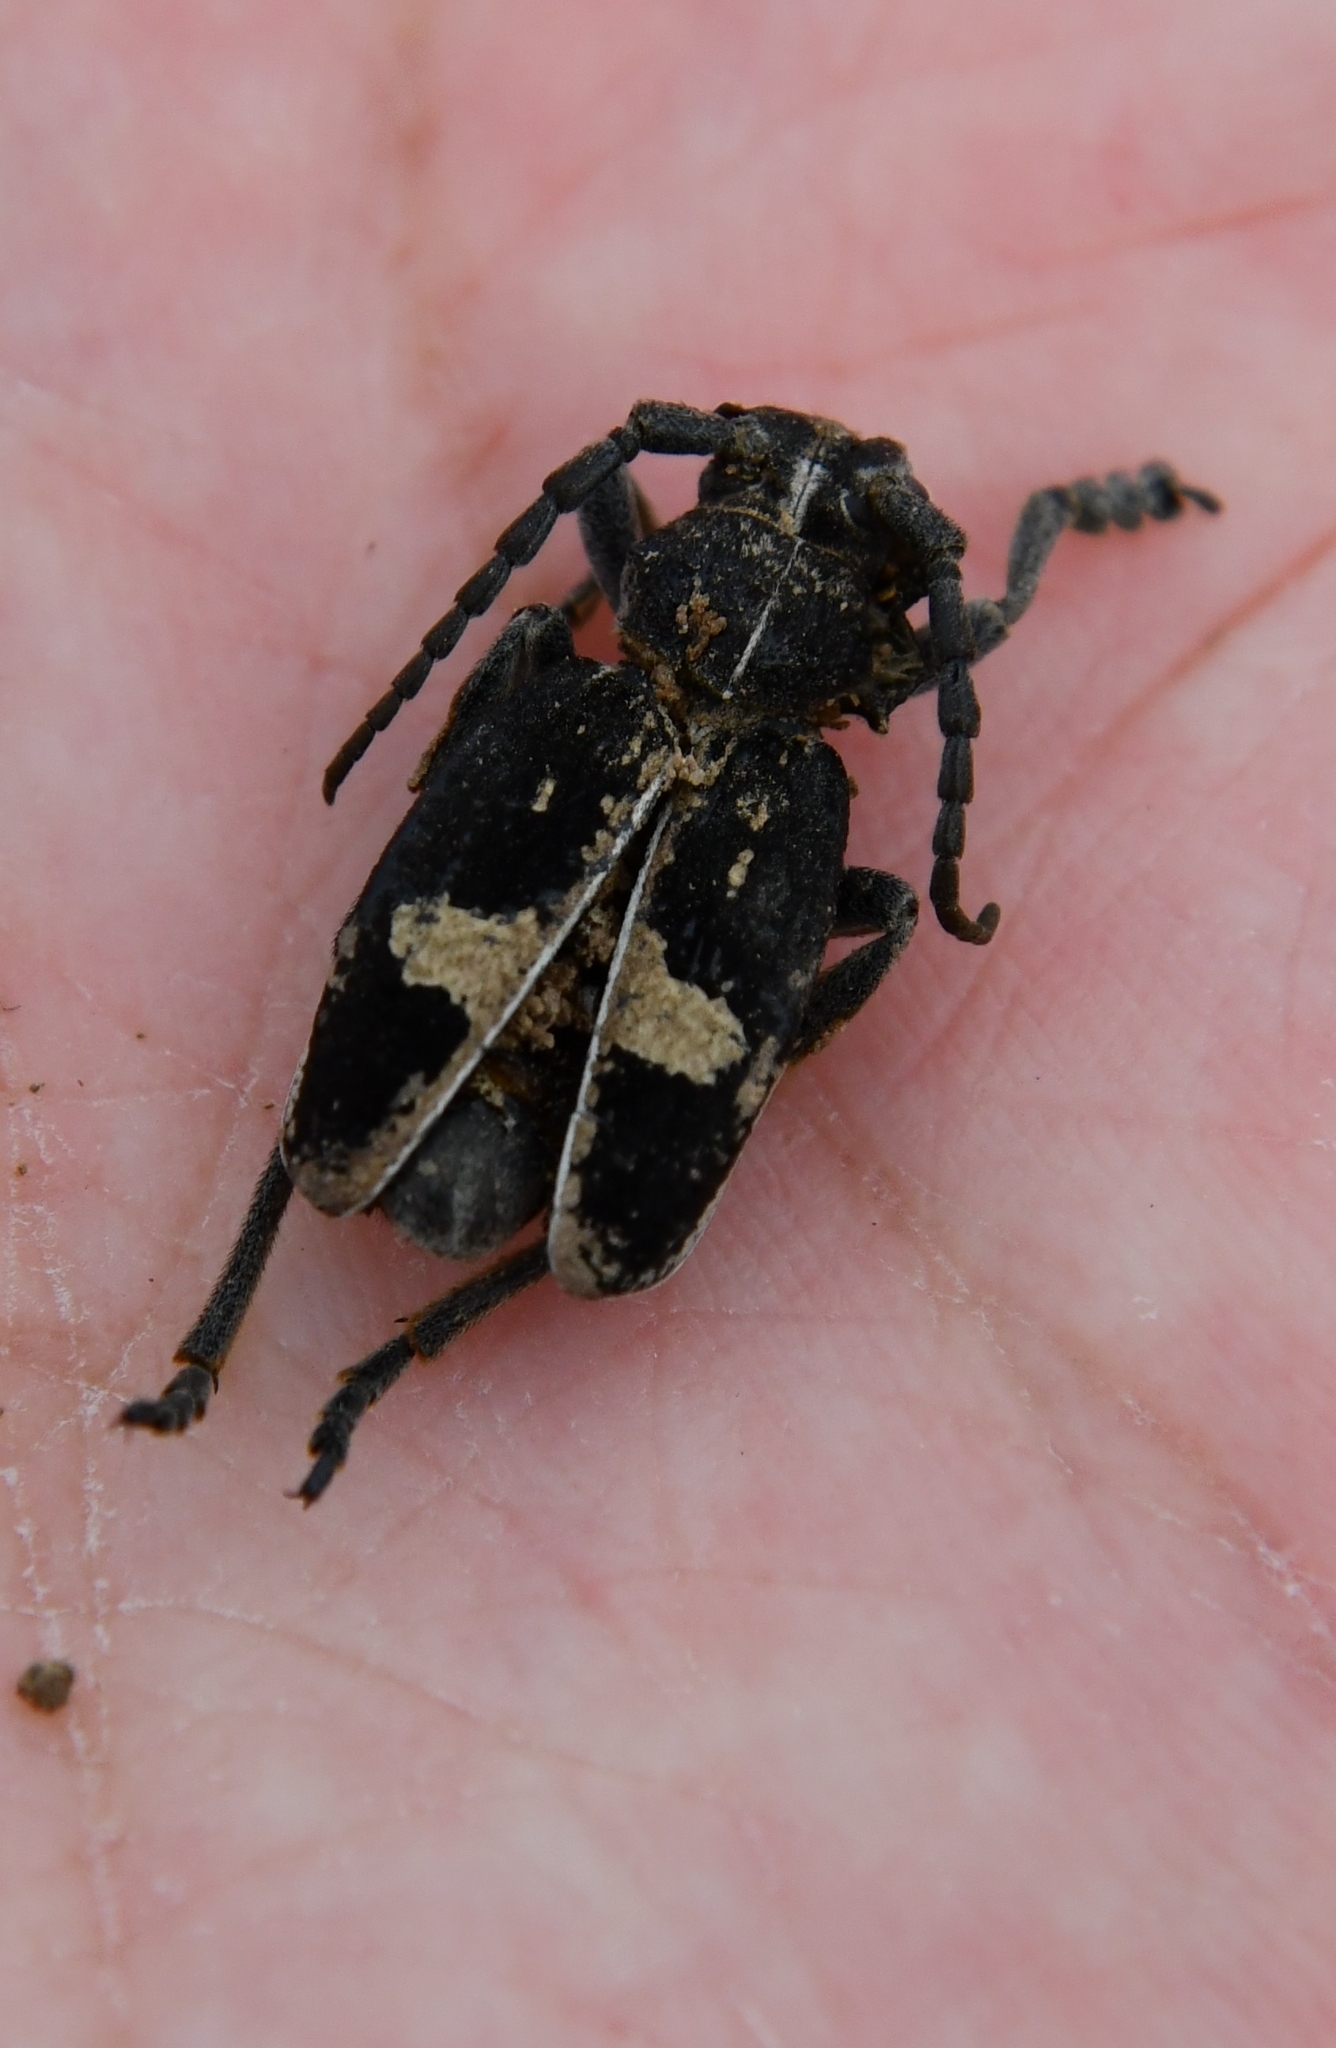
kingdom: Animalia
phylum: Arthropoda
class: Insecta
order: Coleoptera
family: Cerambycidae
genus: Dorcadion
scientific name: Dorcadion equestre
